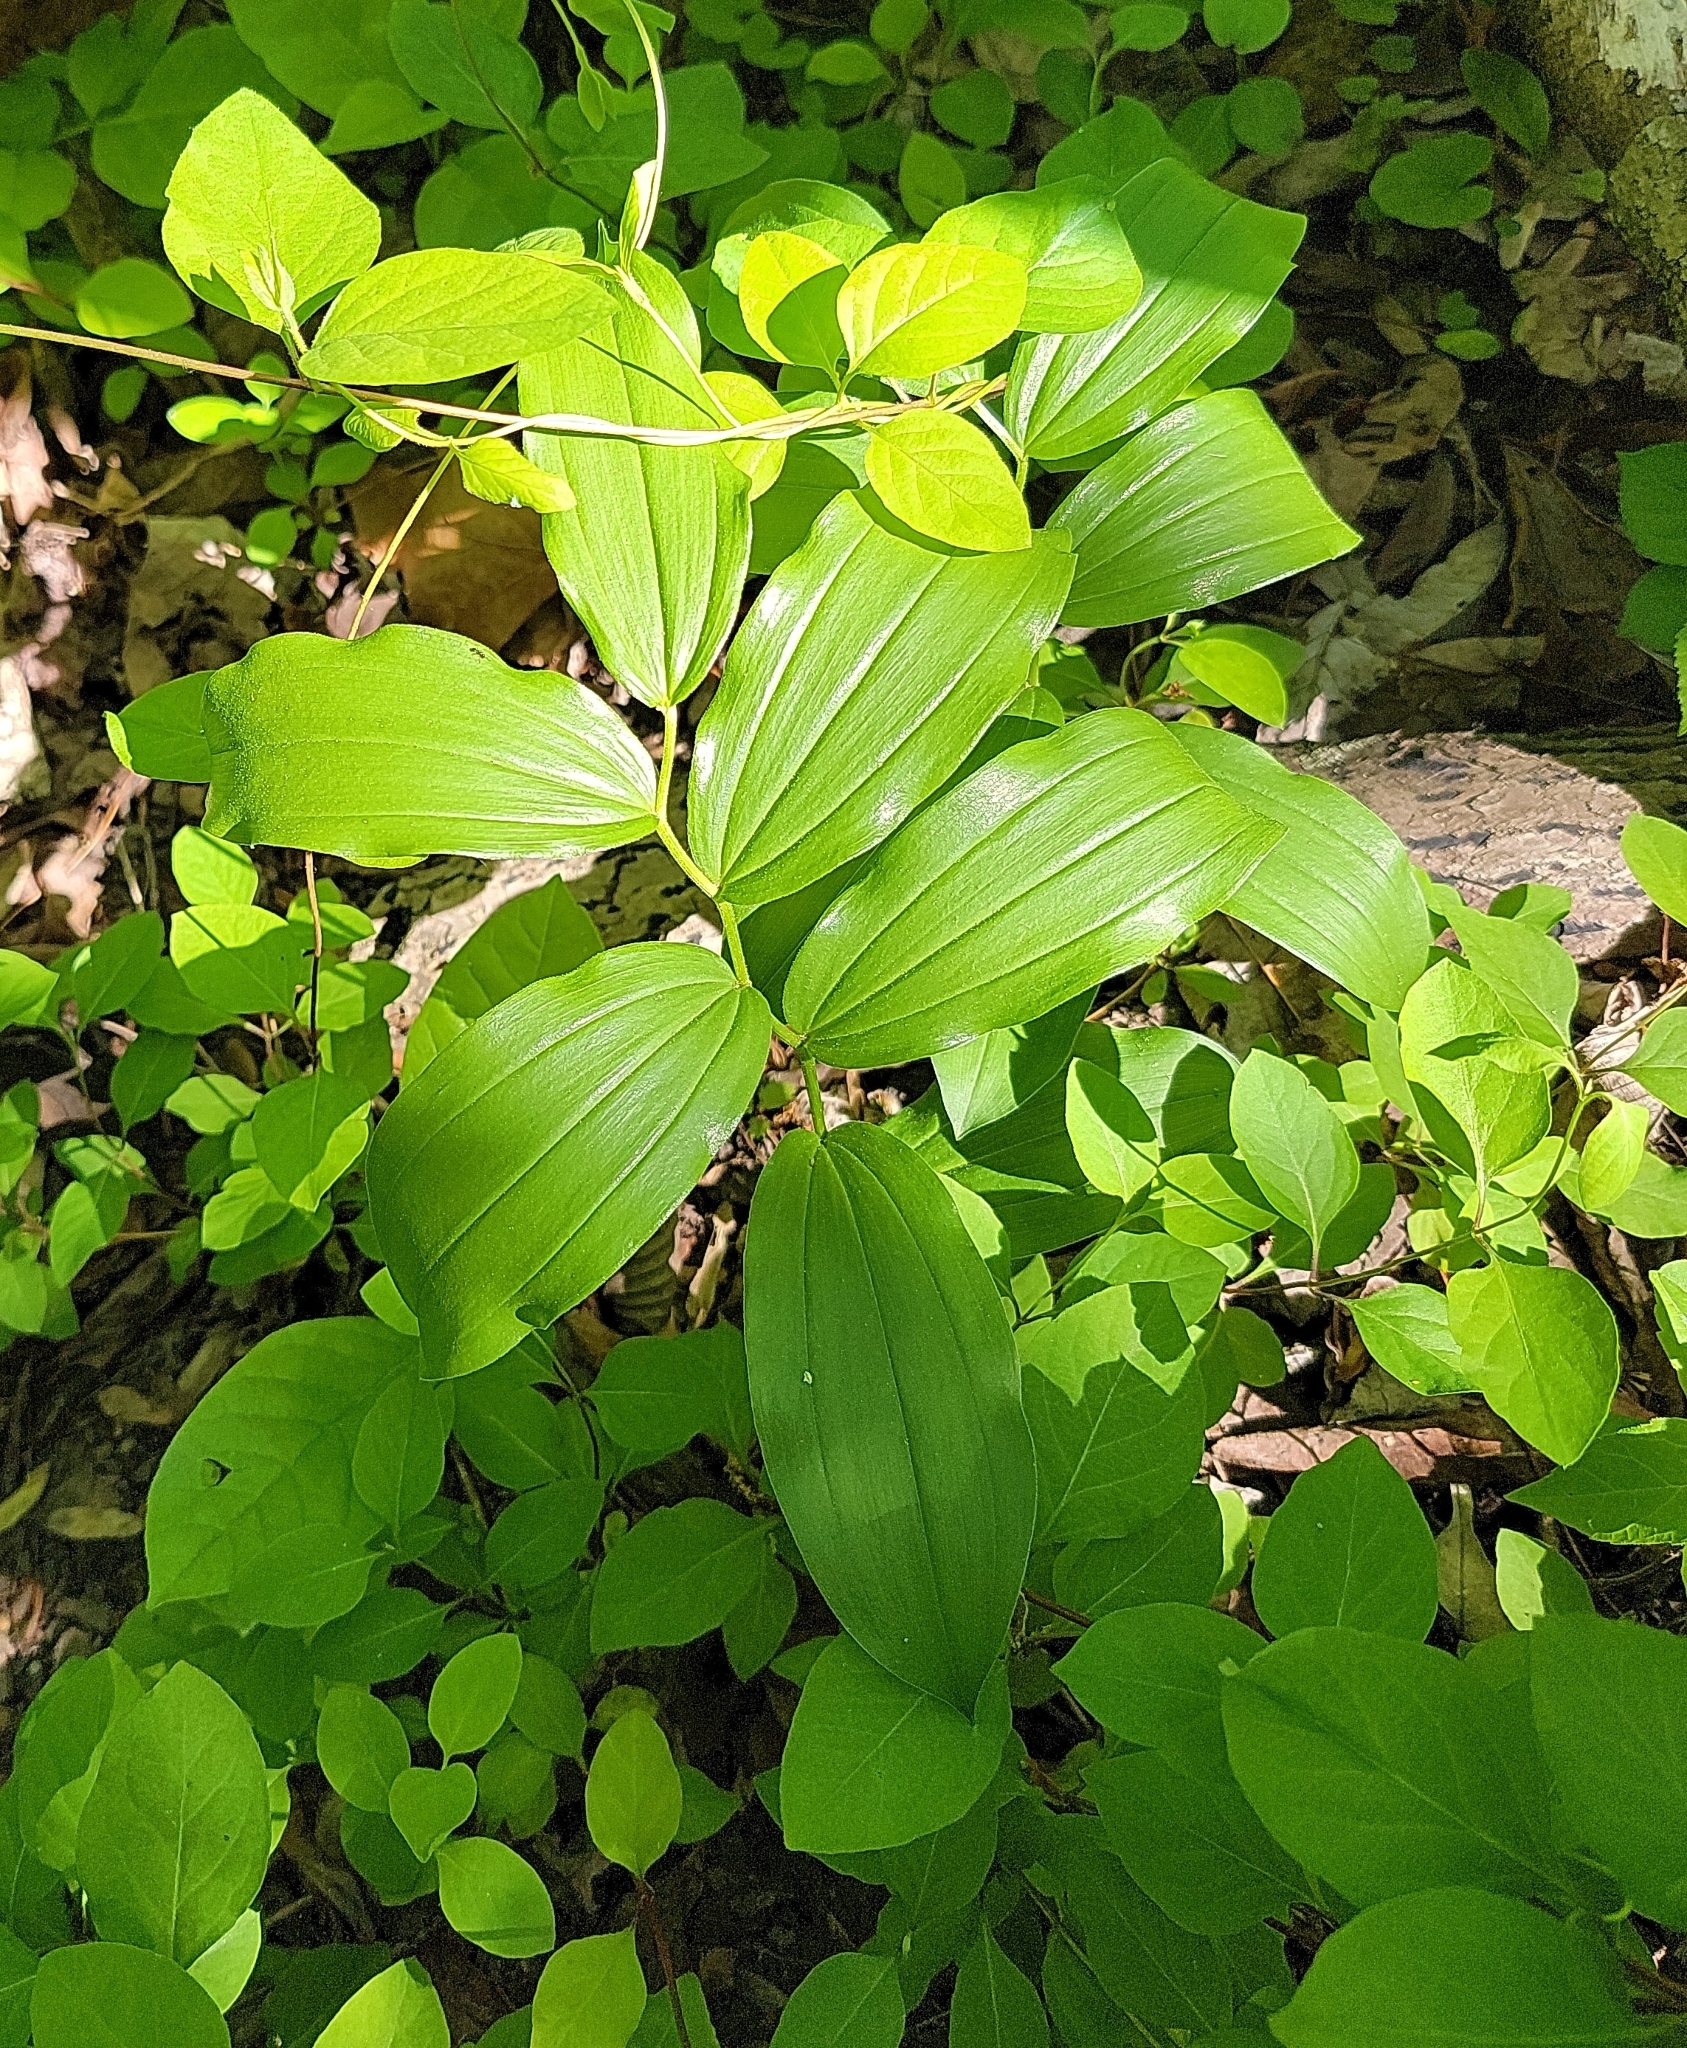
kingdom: Plantae
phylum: Tracheophyta
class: Liliopsida
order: Asparagales
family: Asparagaceae
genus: Maianthemum
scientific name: Maianthemum racemosum
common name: False spikenard
